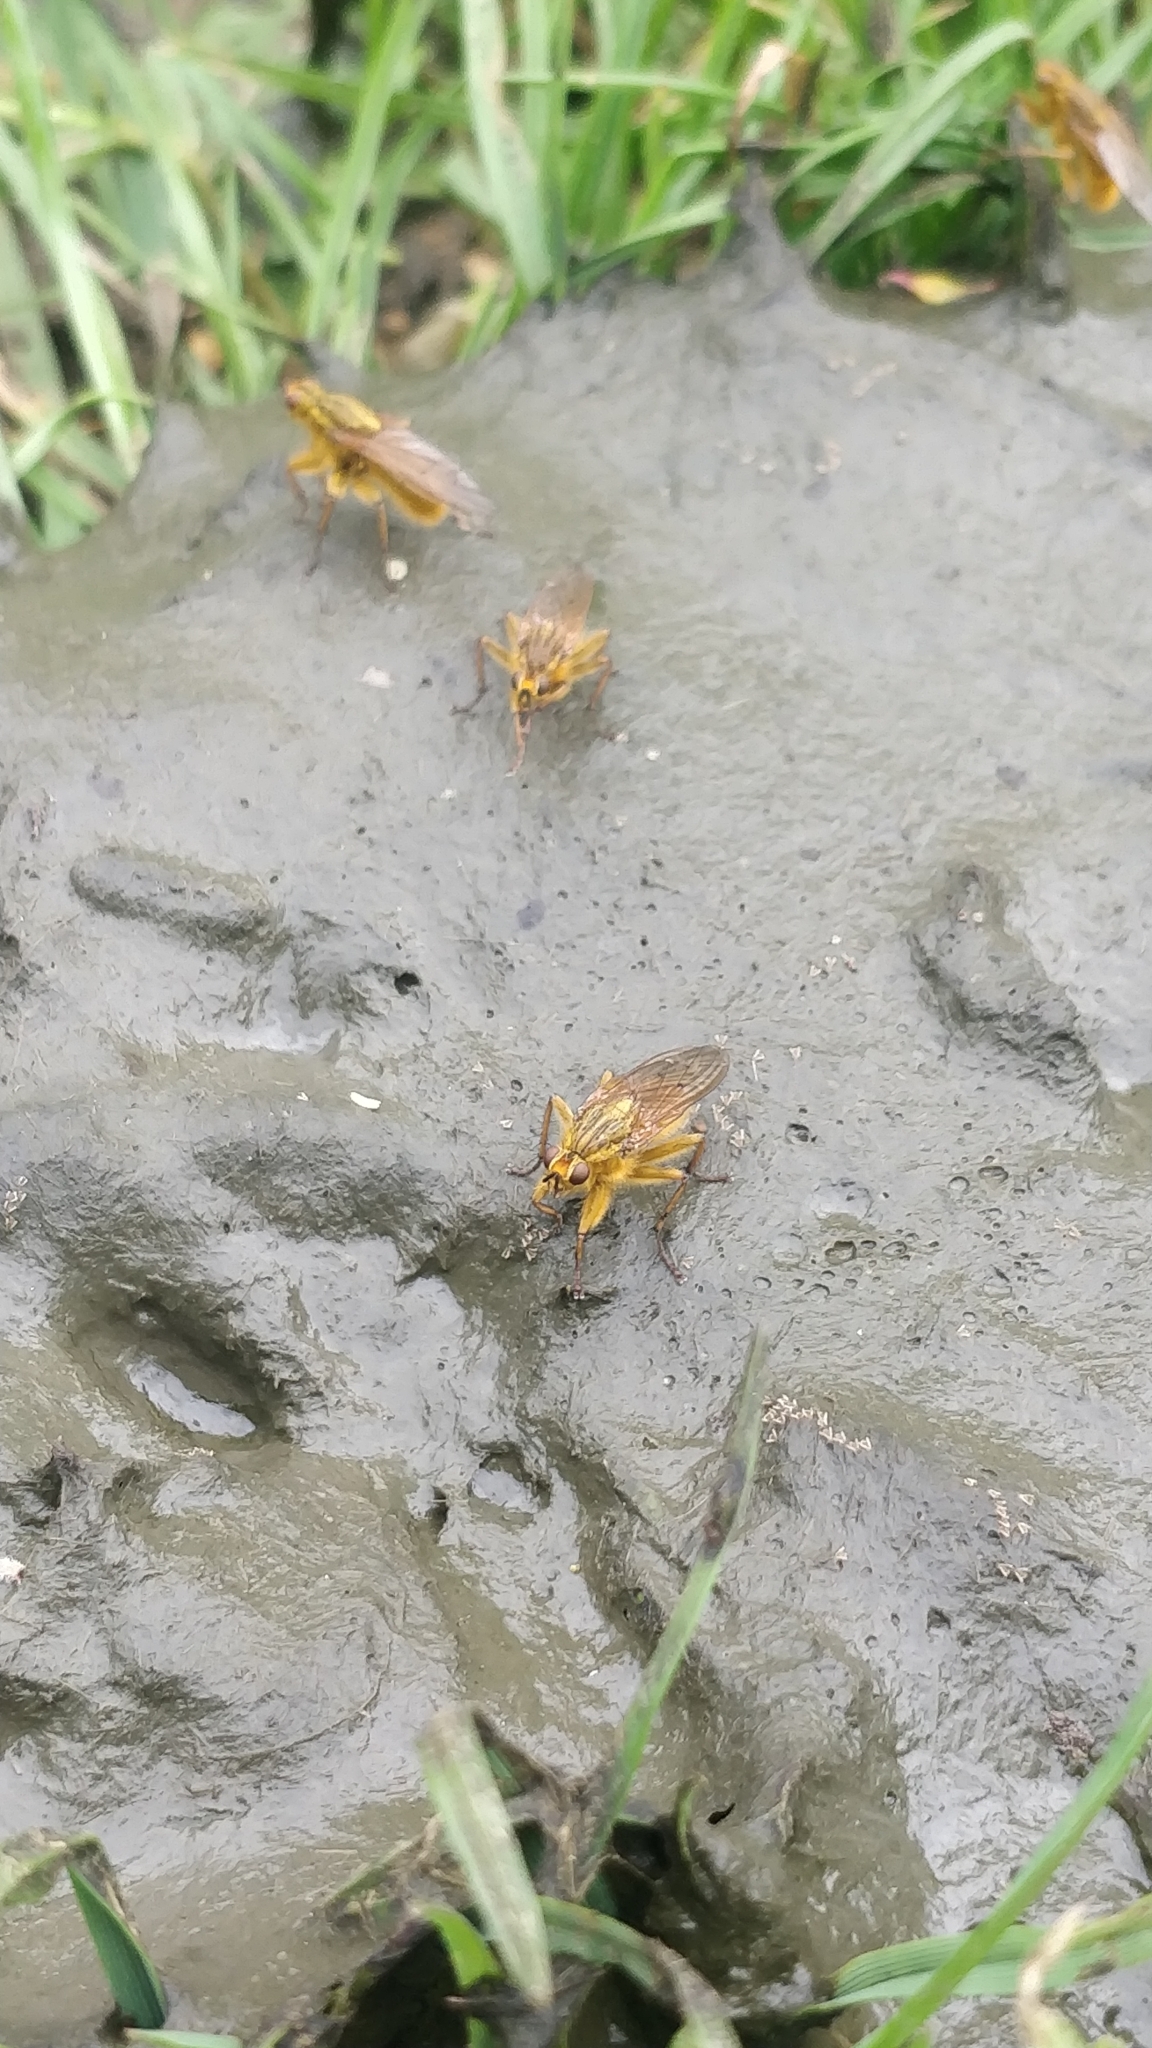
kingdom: Animalia
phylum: Arthropoda
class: Insecta
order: Diptera
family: Scathophagidae
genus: Scathophaga
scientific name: Scathophaga stercoraria
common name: Yellow dung fly
